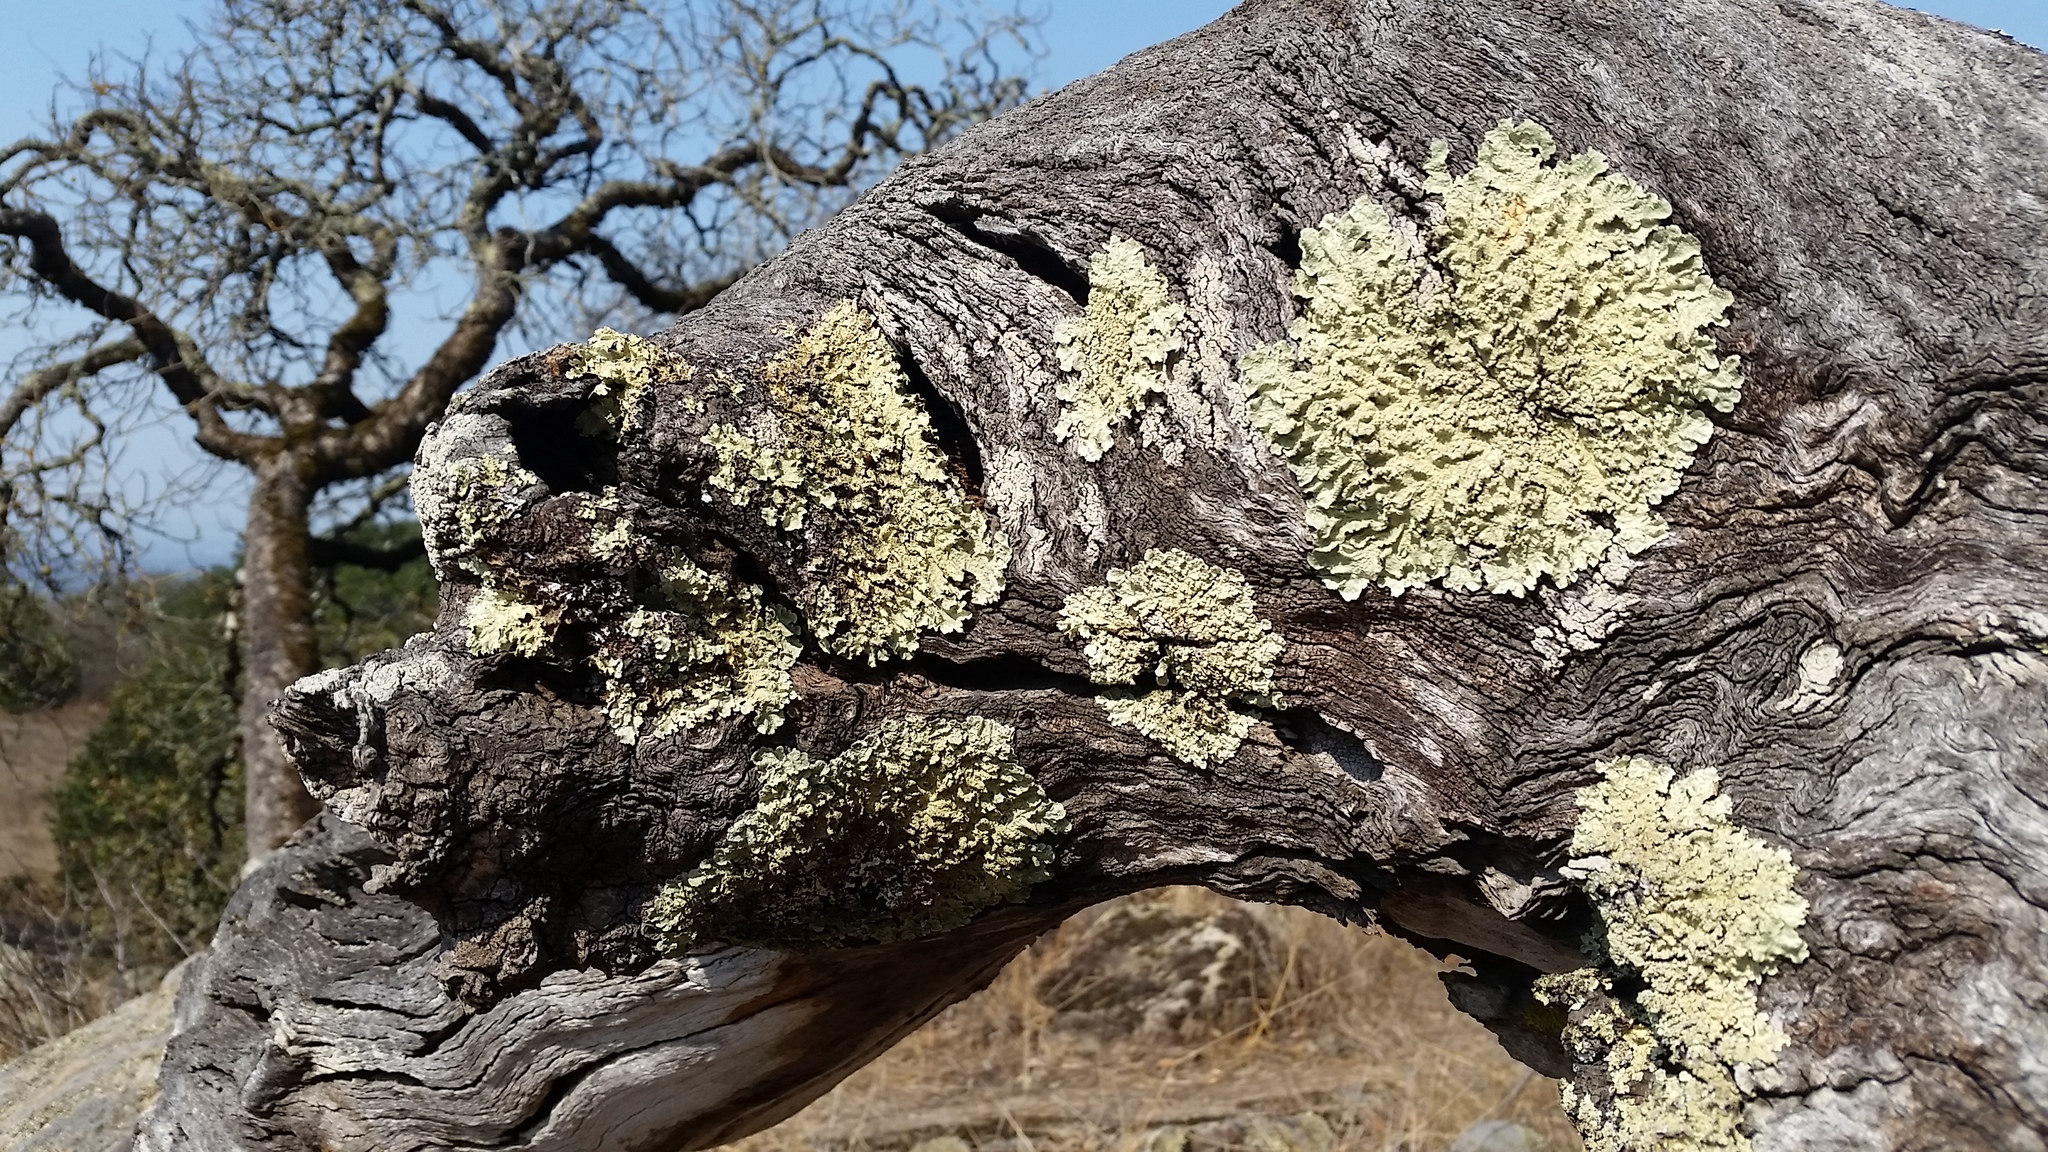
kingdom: Fungi
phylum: Ascomycota
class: Lecanoromycetes
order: Lecanorales
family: Parmeliaceae
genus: Flavoparmelia
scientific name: Flavoparmelia caperata
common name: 40-mile per hour lichen
